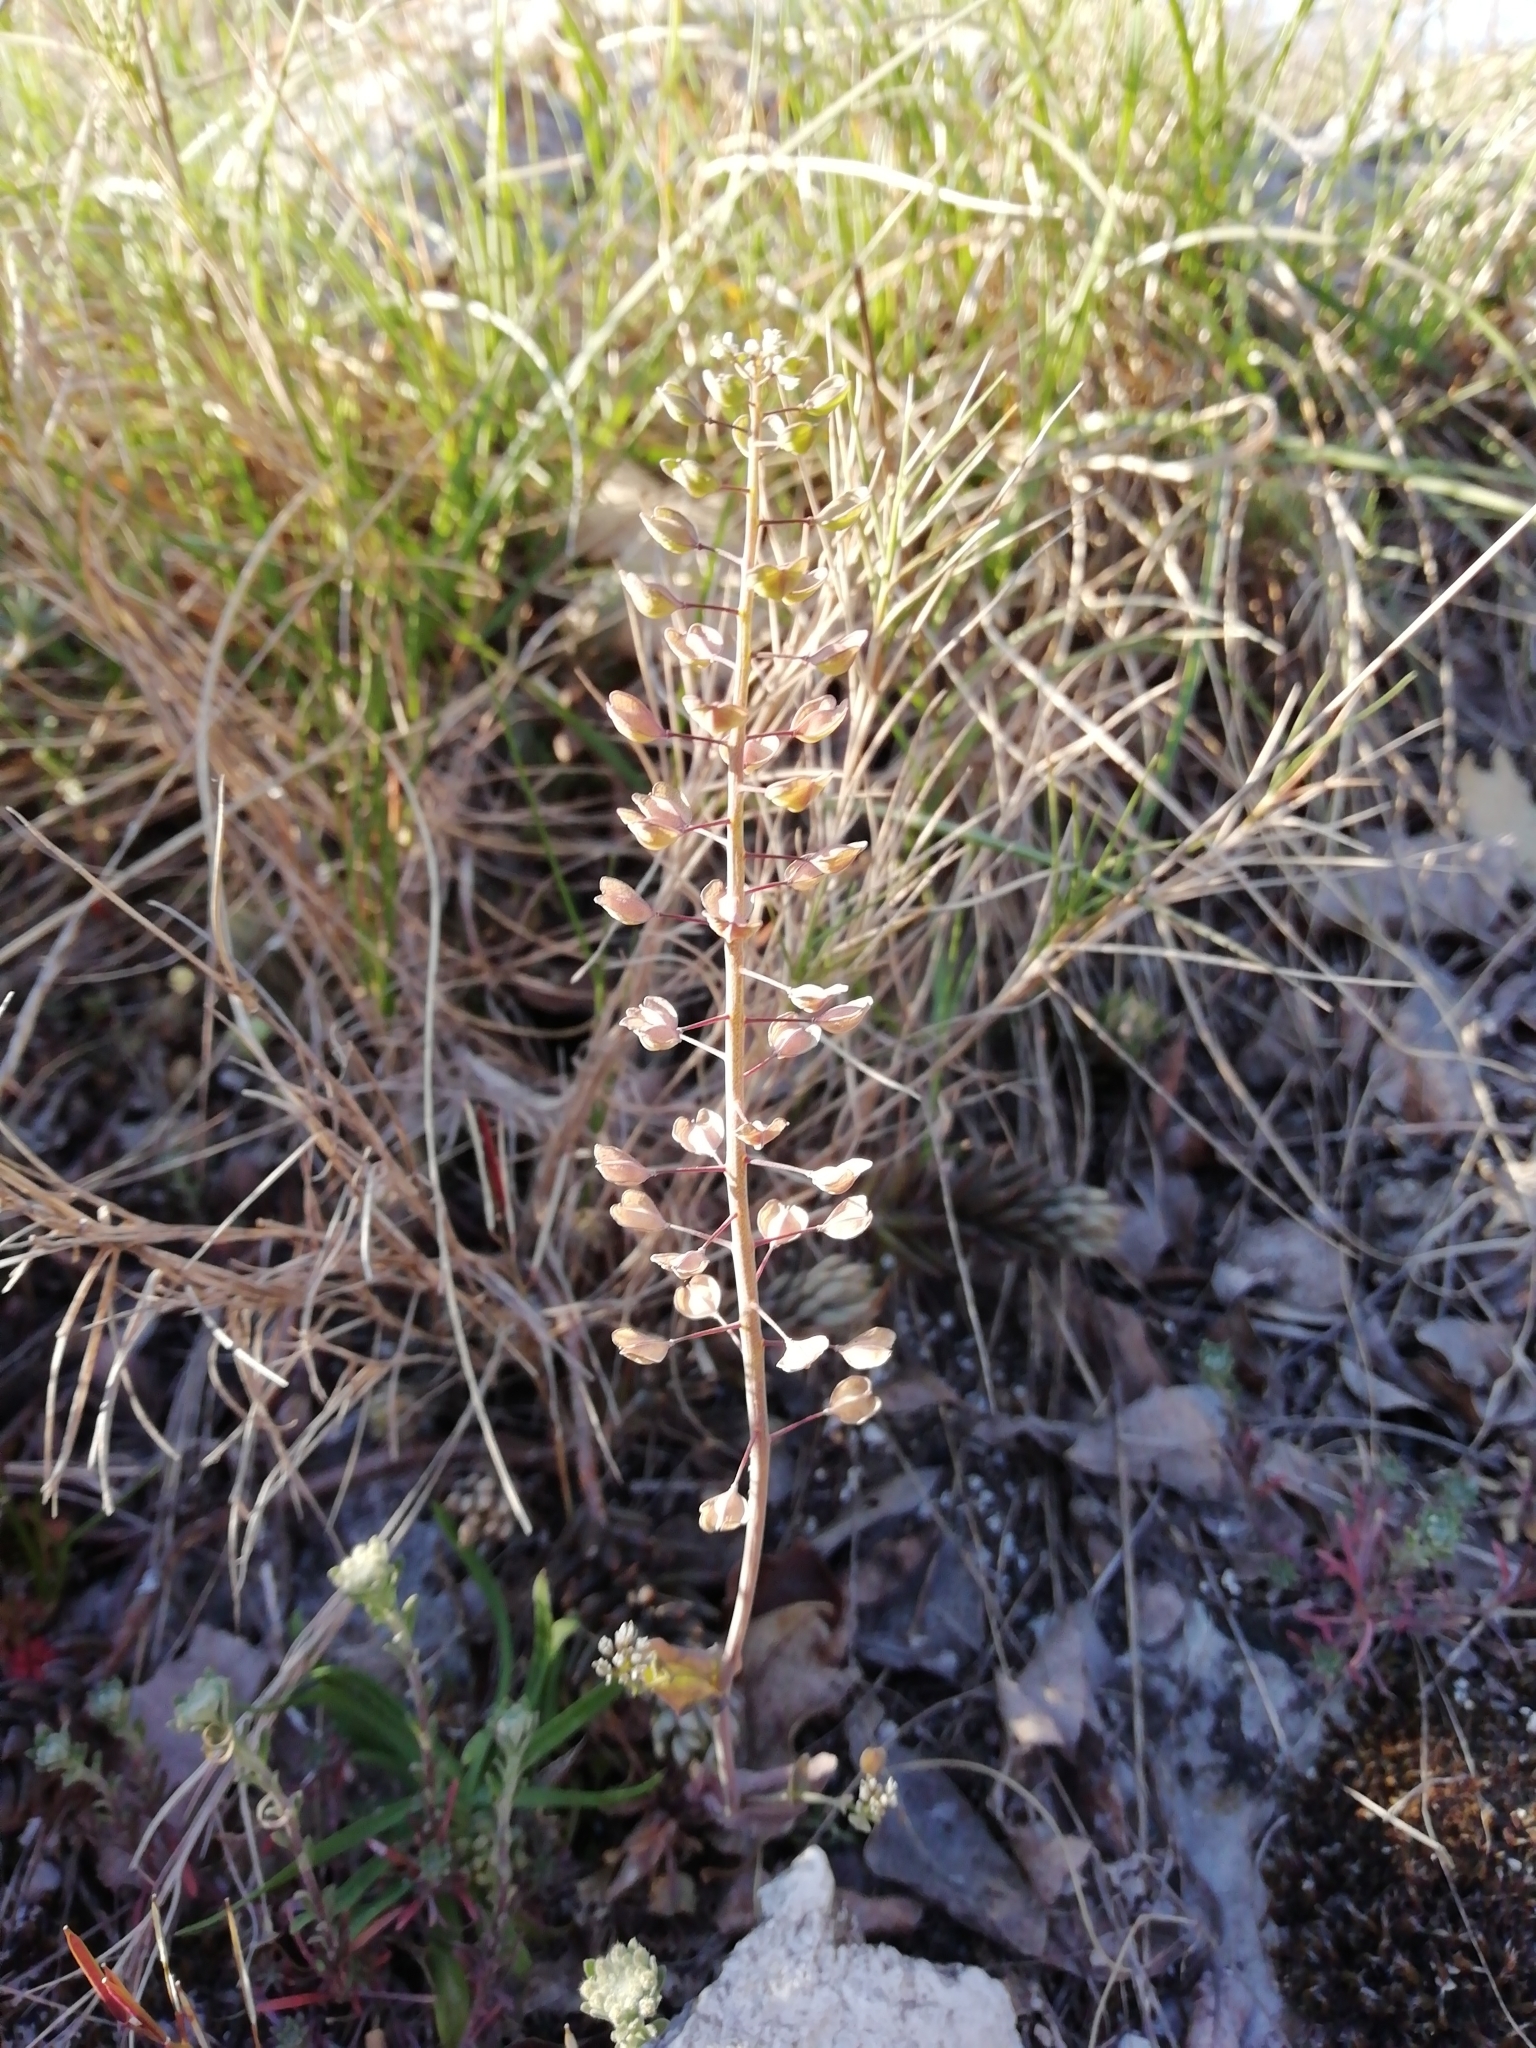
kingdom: Plantae
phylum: Tracheophyta
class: Magnoliopsida
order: Brassicales
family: Brassicaceae
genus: Noccaea
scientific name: Noccaea perfoliata
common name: Perfoliate pennycress
